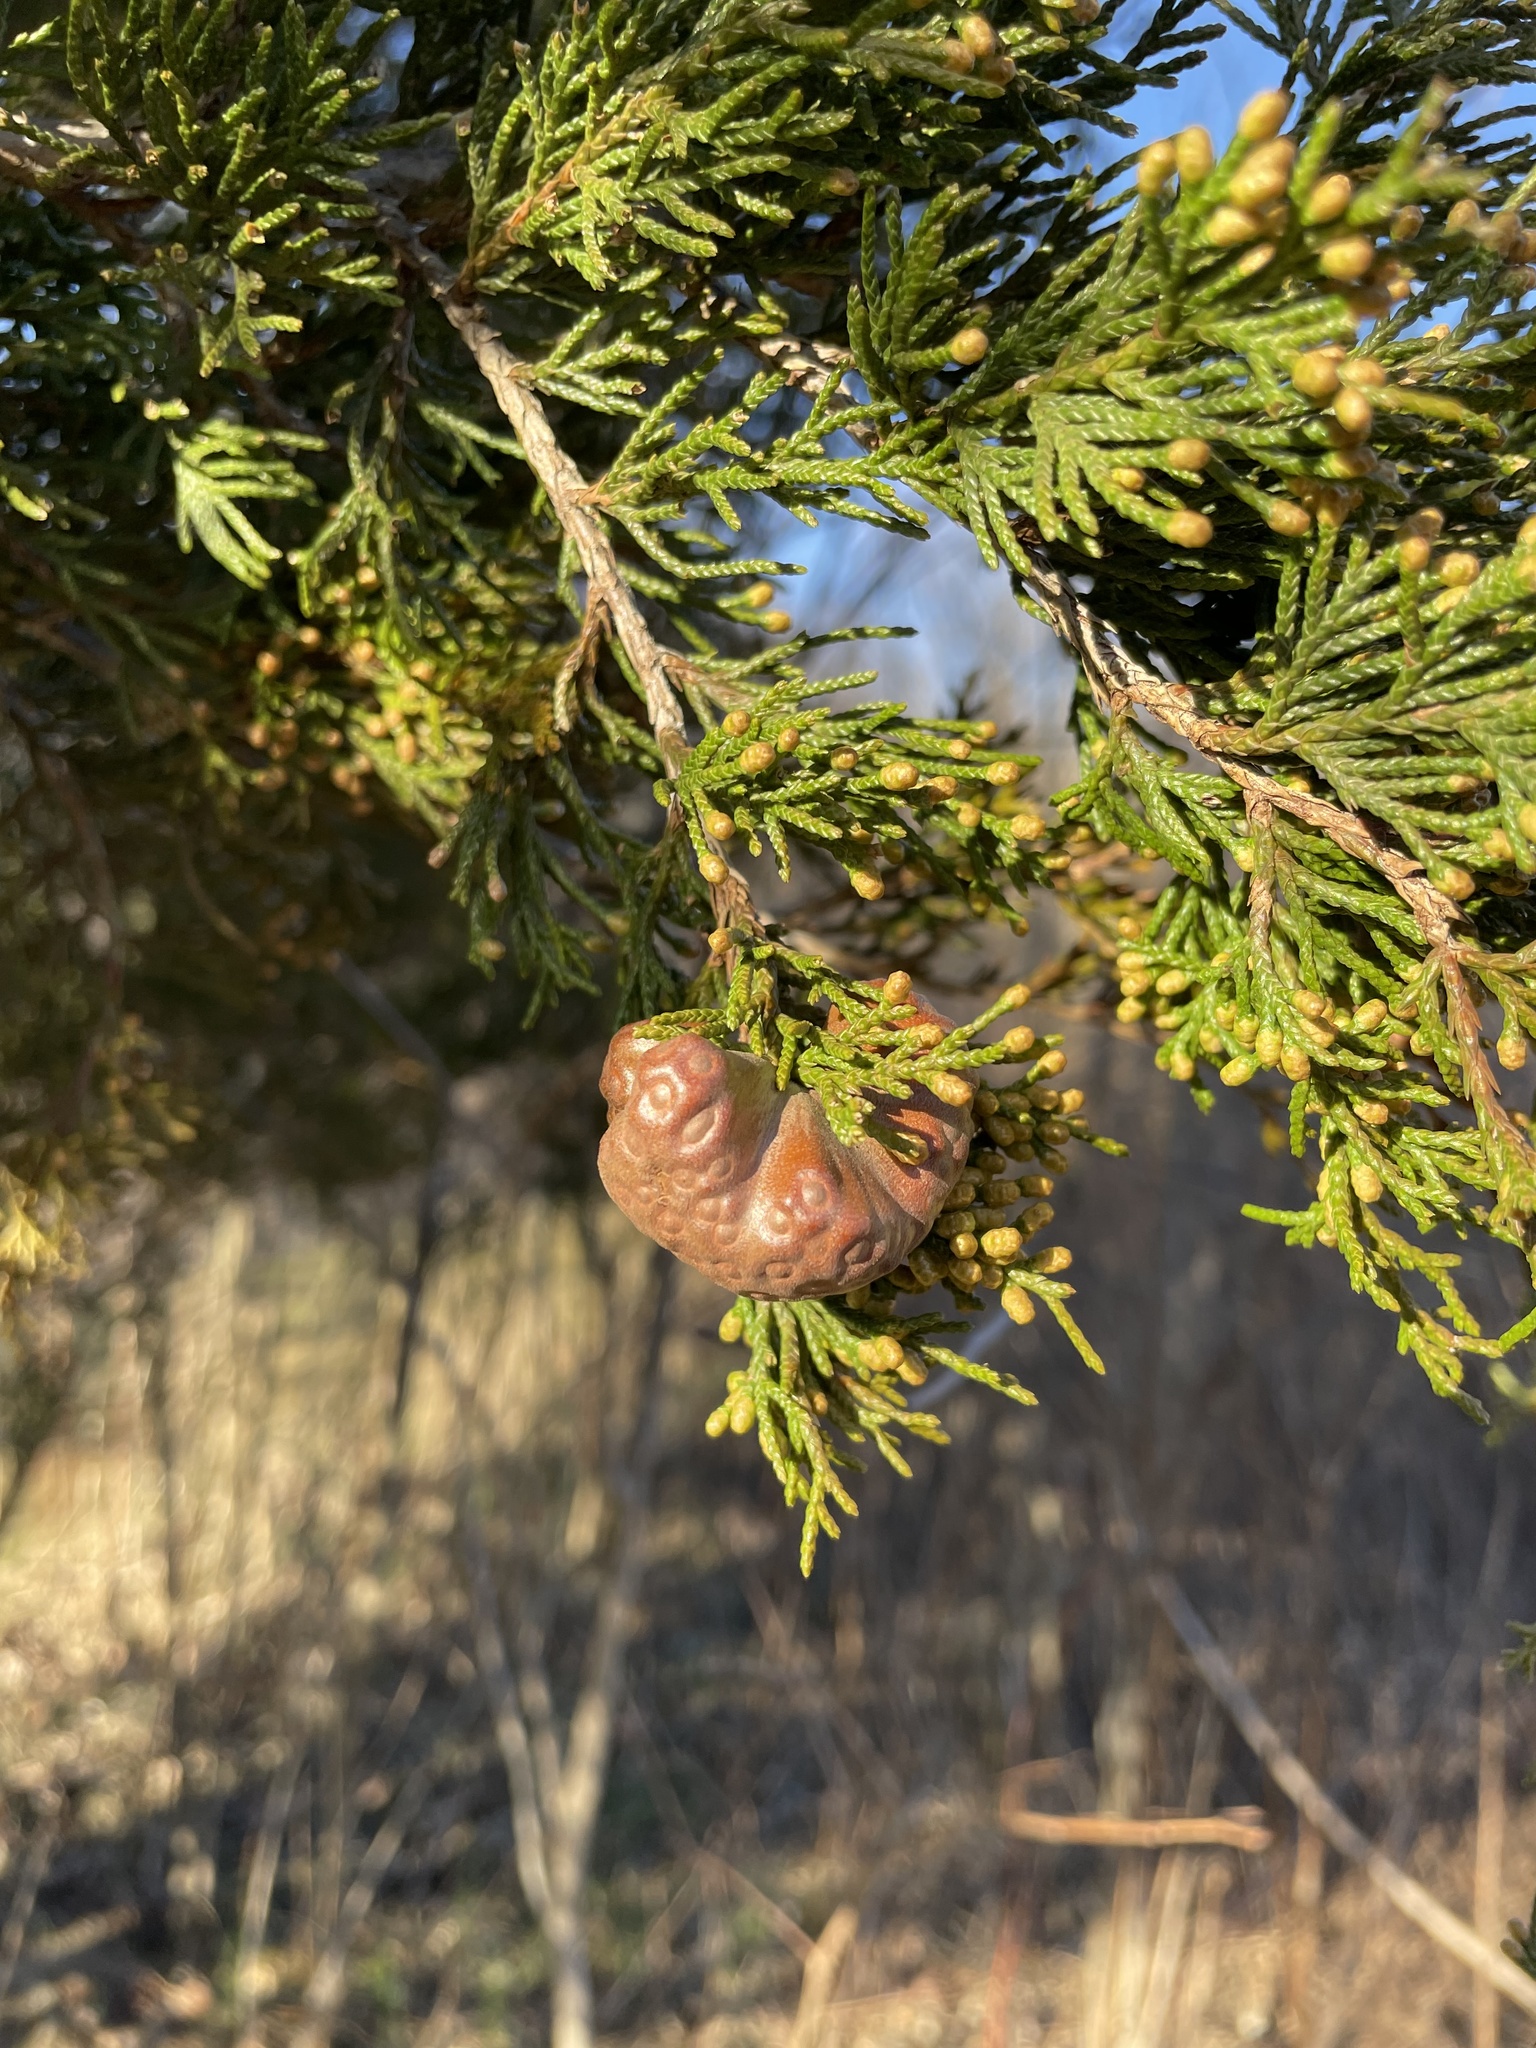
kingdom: Fungi
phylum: Basidiomycota
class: Pucciniomycetes
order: Pucciniales
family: Gymnosporangiaceae
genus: Gymnosporangium
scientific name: Gymnosporangium juniperi-virginianae
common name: Juniper-apple rust
